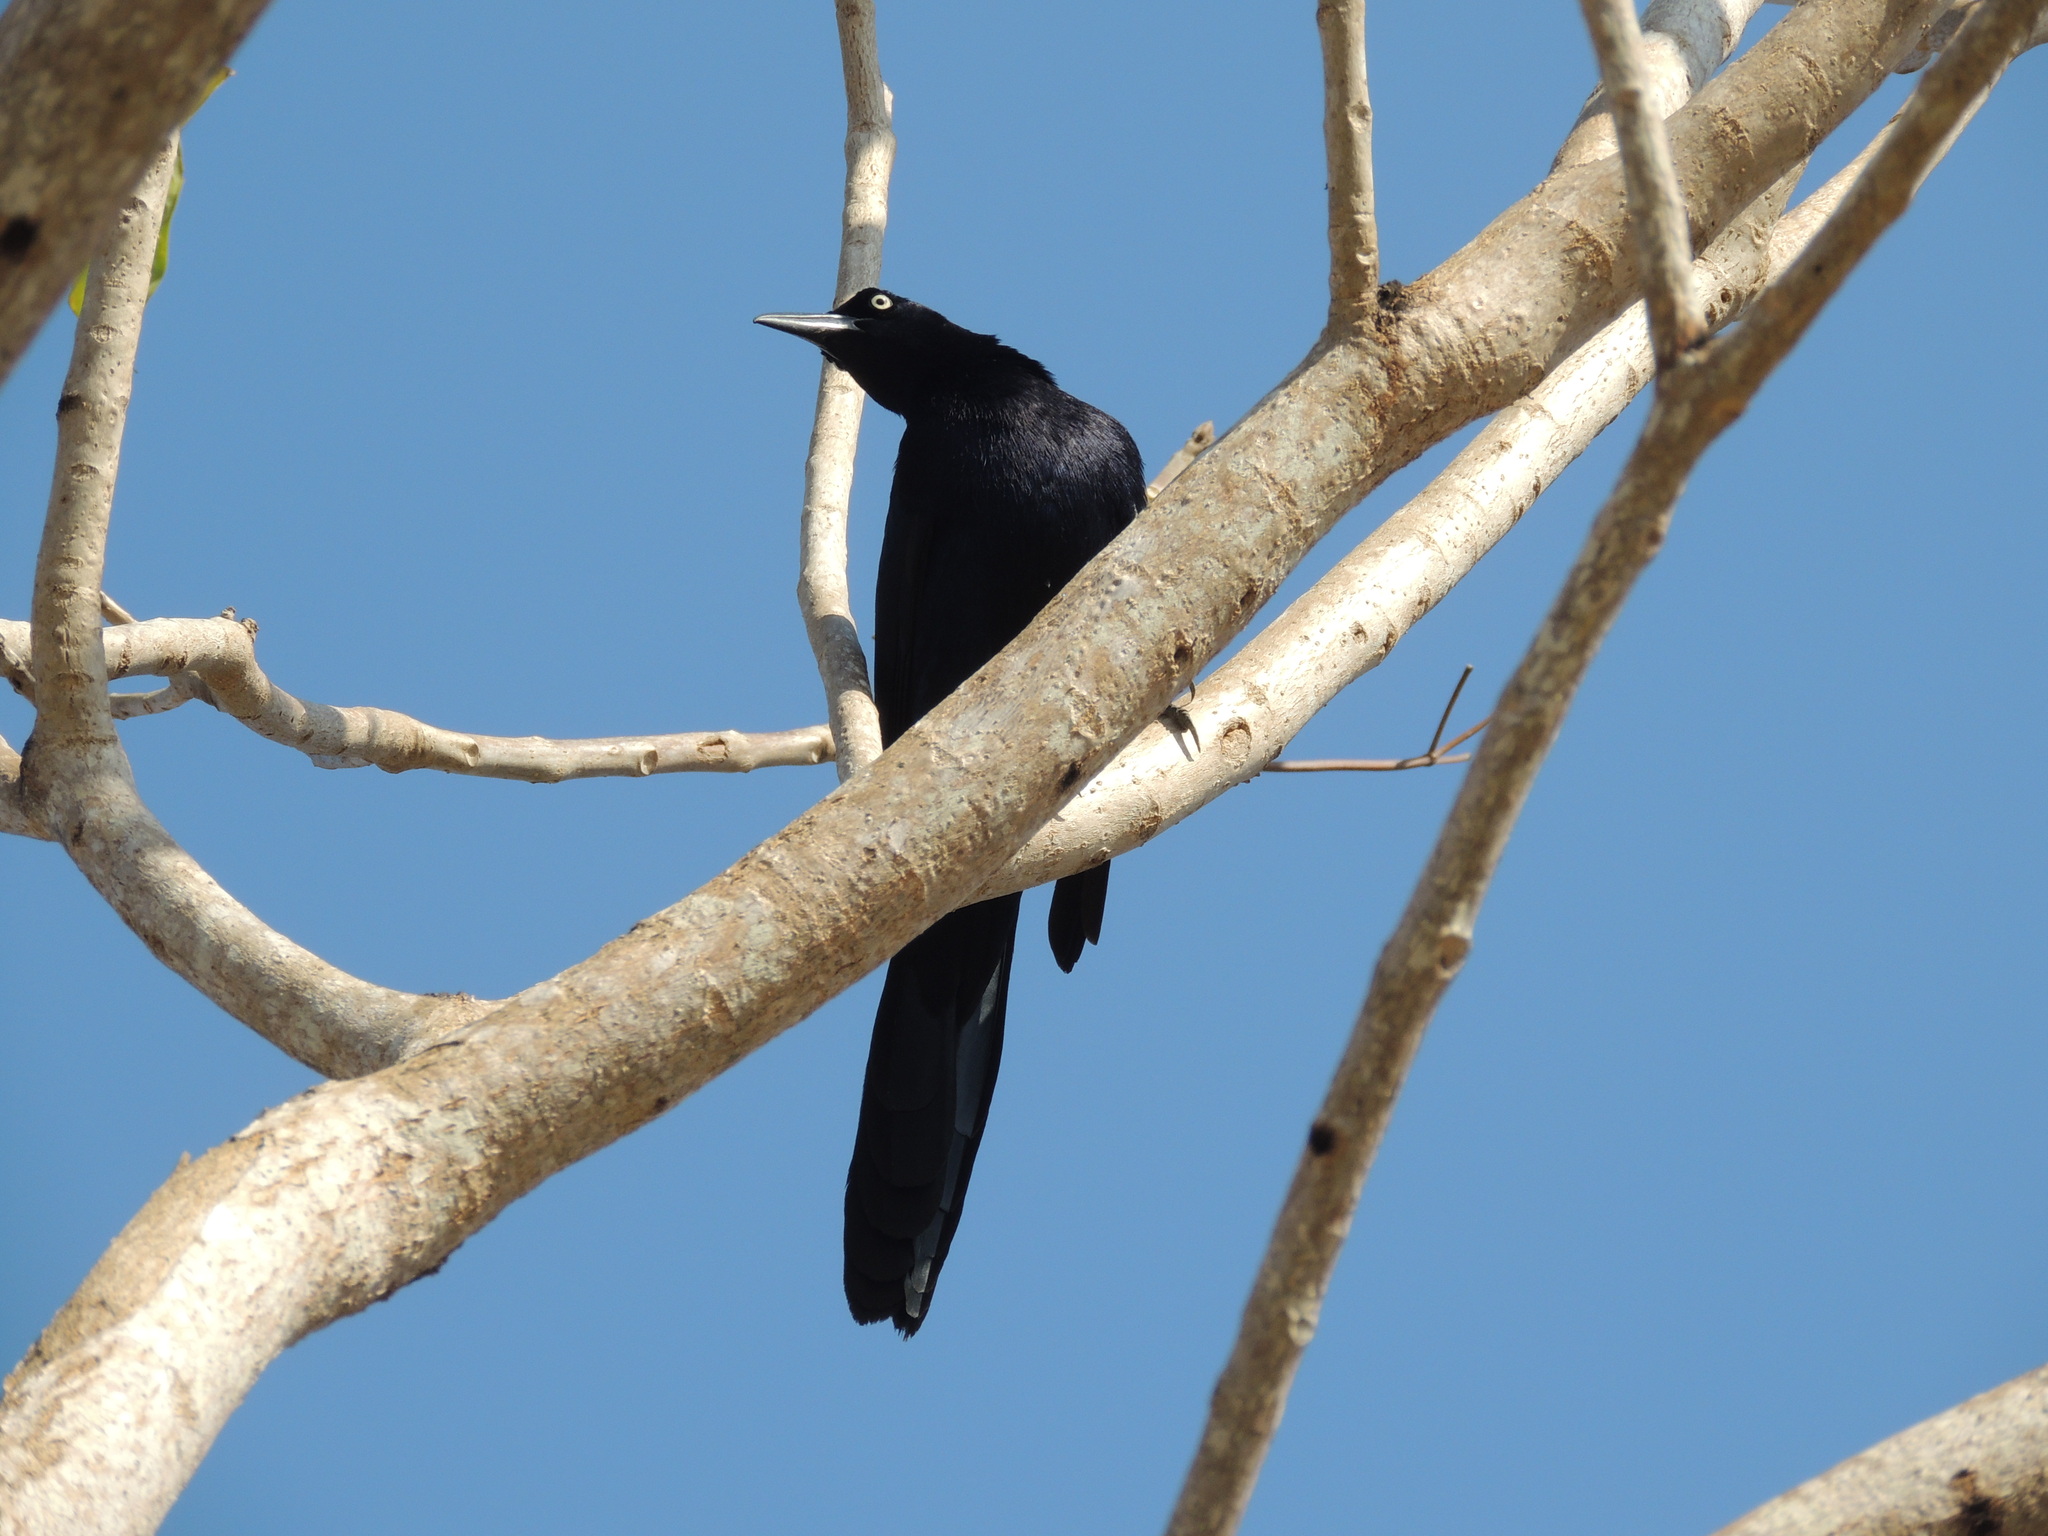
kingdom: Animalia
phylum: Chordata
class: Aves
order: Passeriformes
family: Icteridae
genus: Quiscalus
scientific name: Quiscalus mexicanus
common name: Great-tailed grackle
